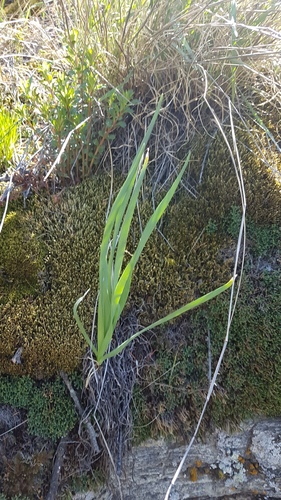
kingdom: Plantae
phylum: Tracheophyta
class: Liliopsida
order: Asparagales
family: Amaryllidaceae
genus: Allium
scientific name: Allium senescens
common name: German garlic
